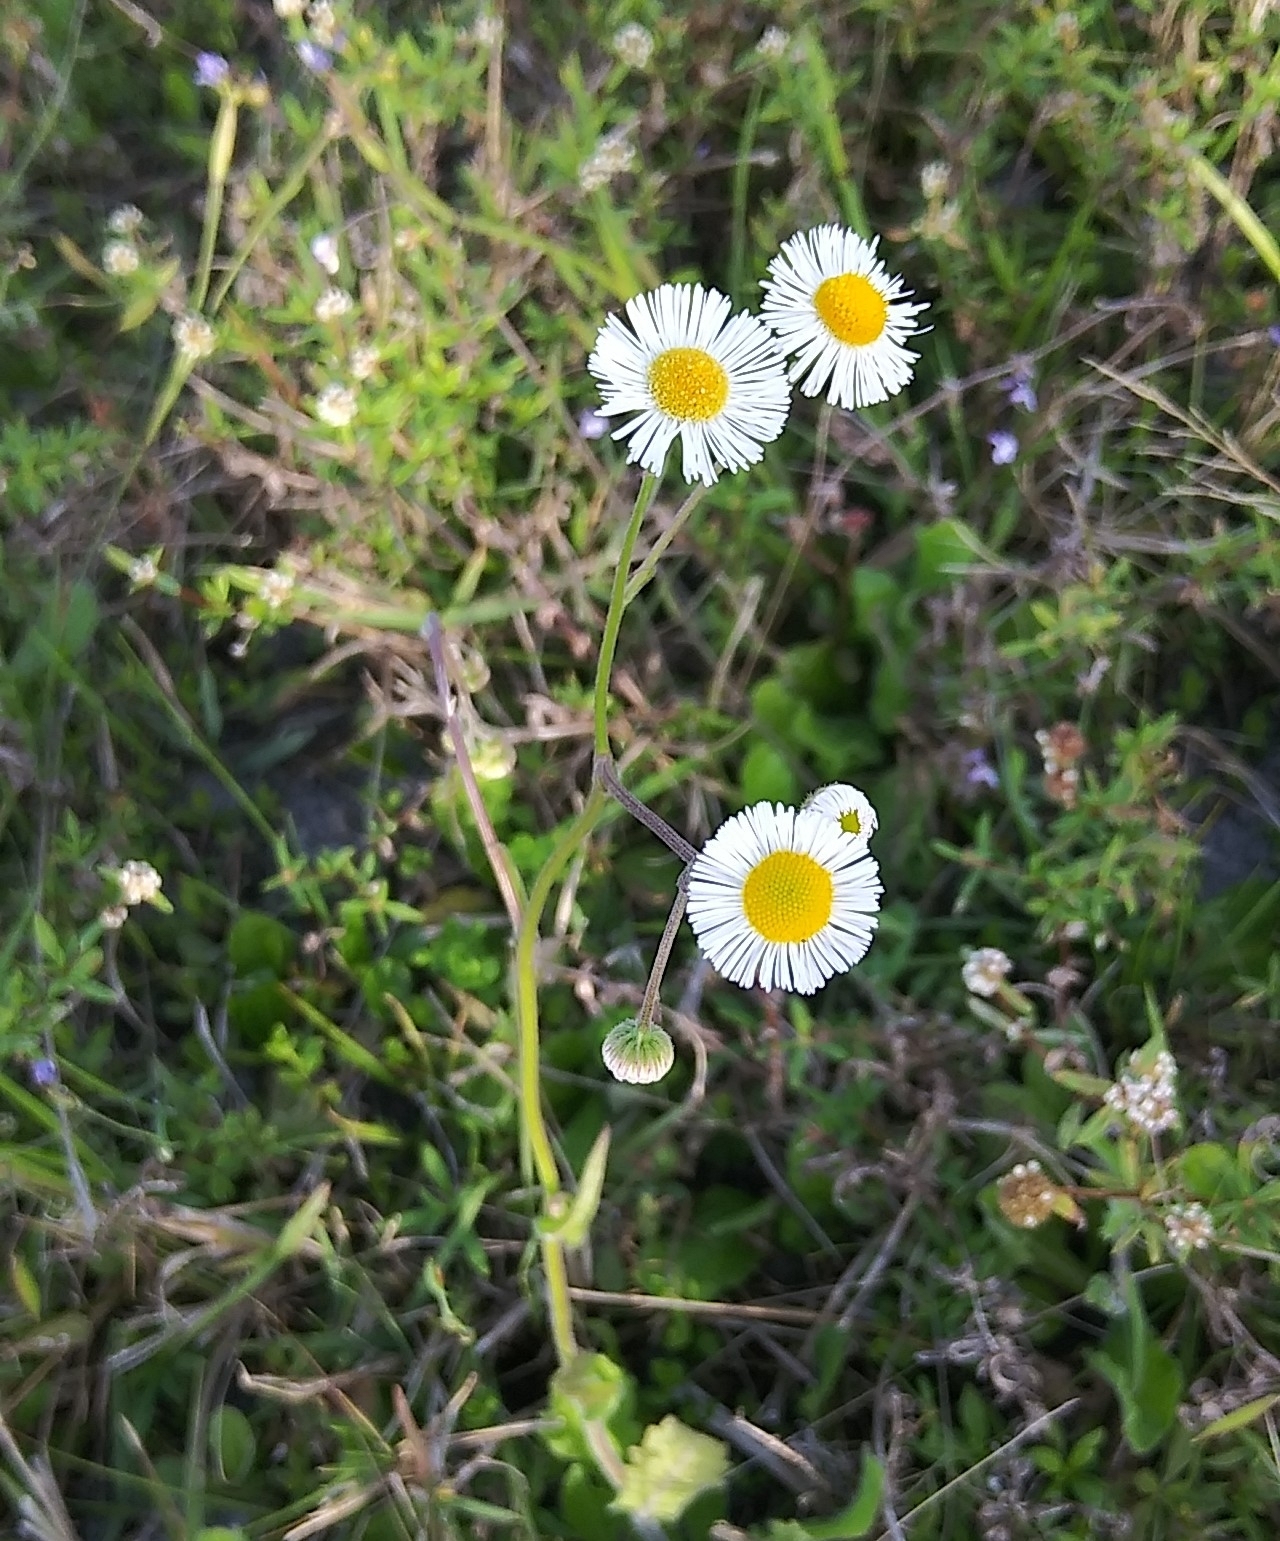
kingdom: Plantae
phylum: Tracheophyta
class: Magnoliopsida
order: Asterales
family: Asteraceae
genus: Erigeron
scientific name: Erigeron quercifolius
